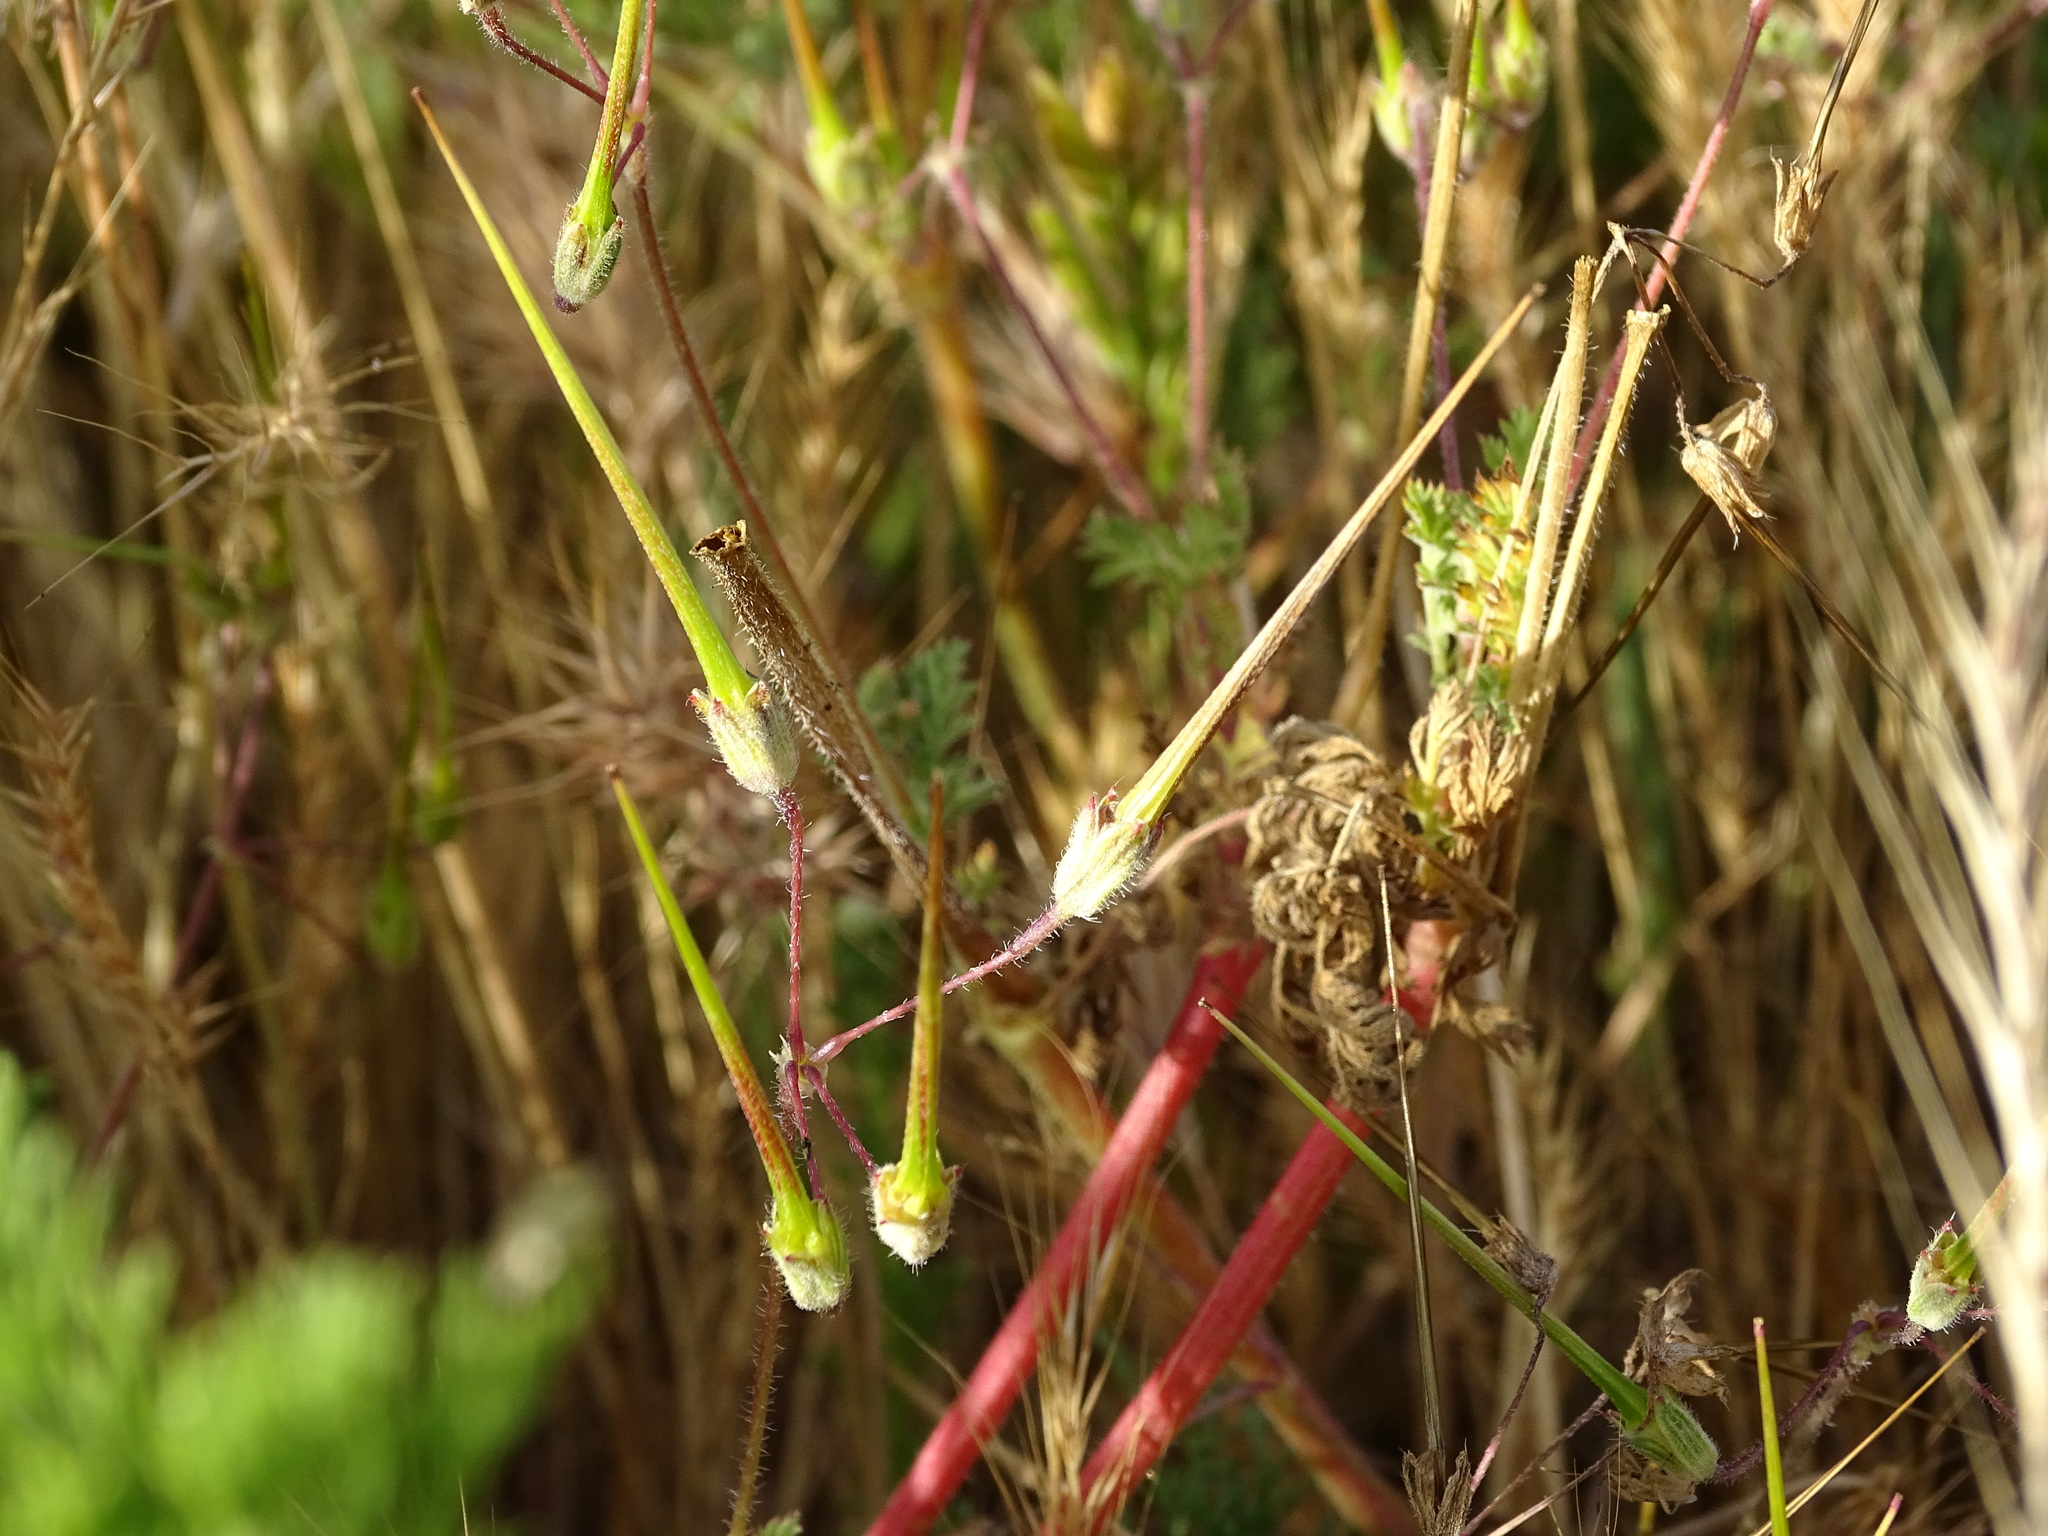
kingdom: Plantae
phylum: Tracheophyta
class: Magnoliopsida
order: Geraniales
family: Geraniaceae
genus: Erodium
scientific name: Erodium cicutarium
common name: Common stork's-bill
